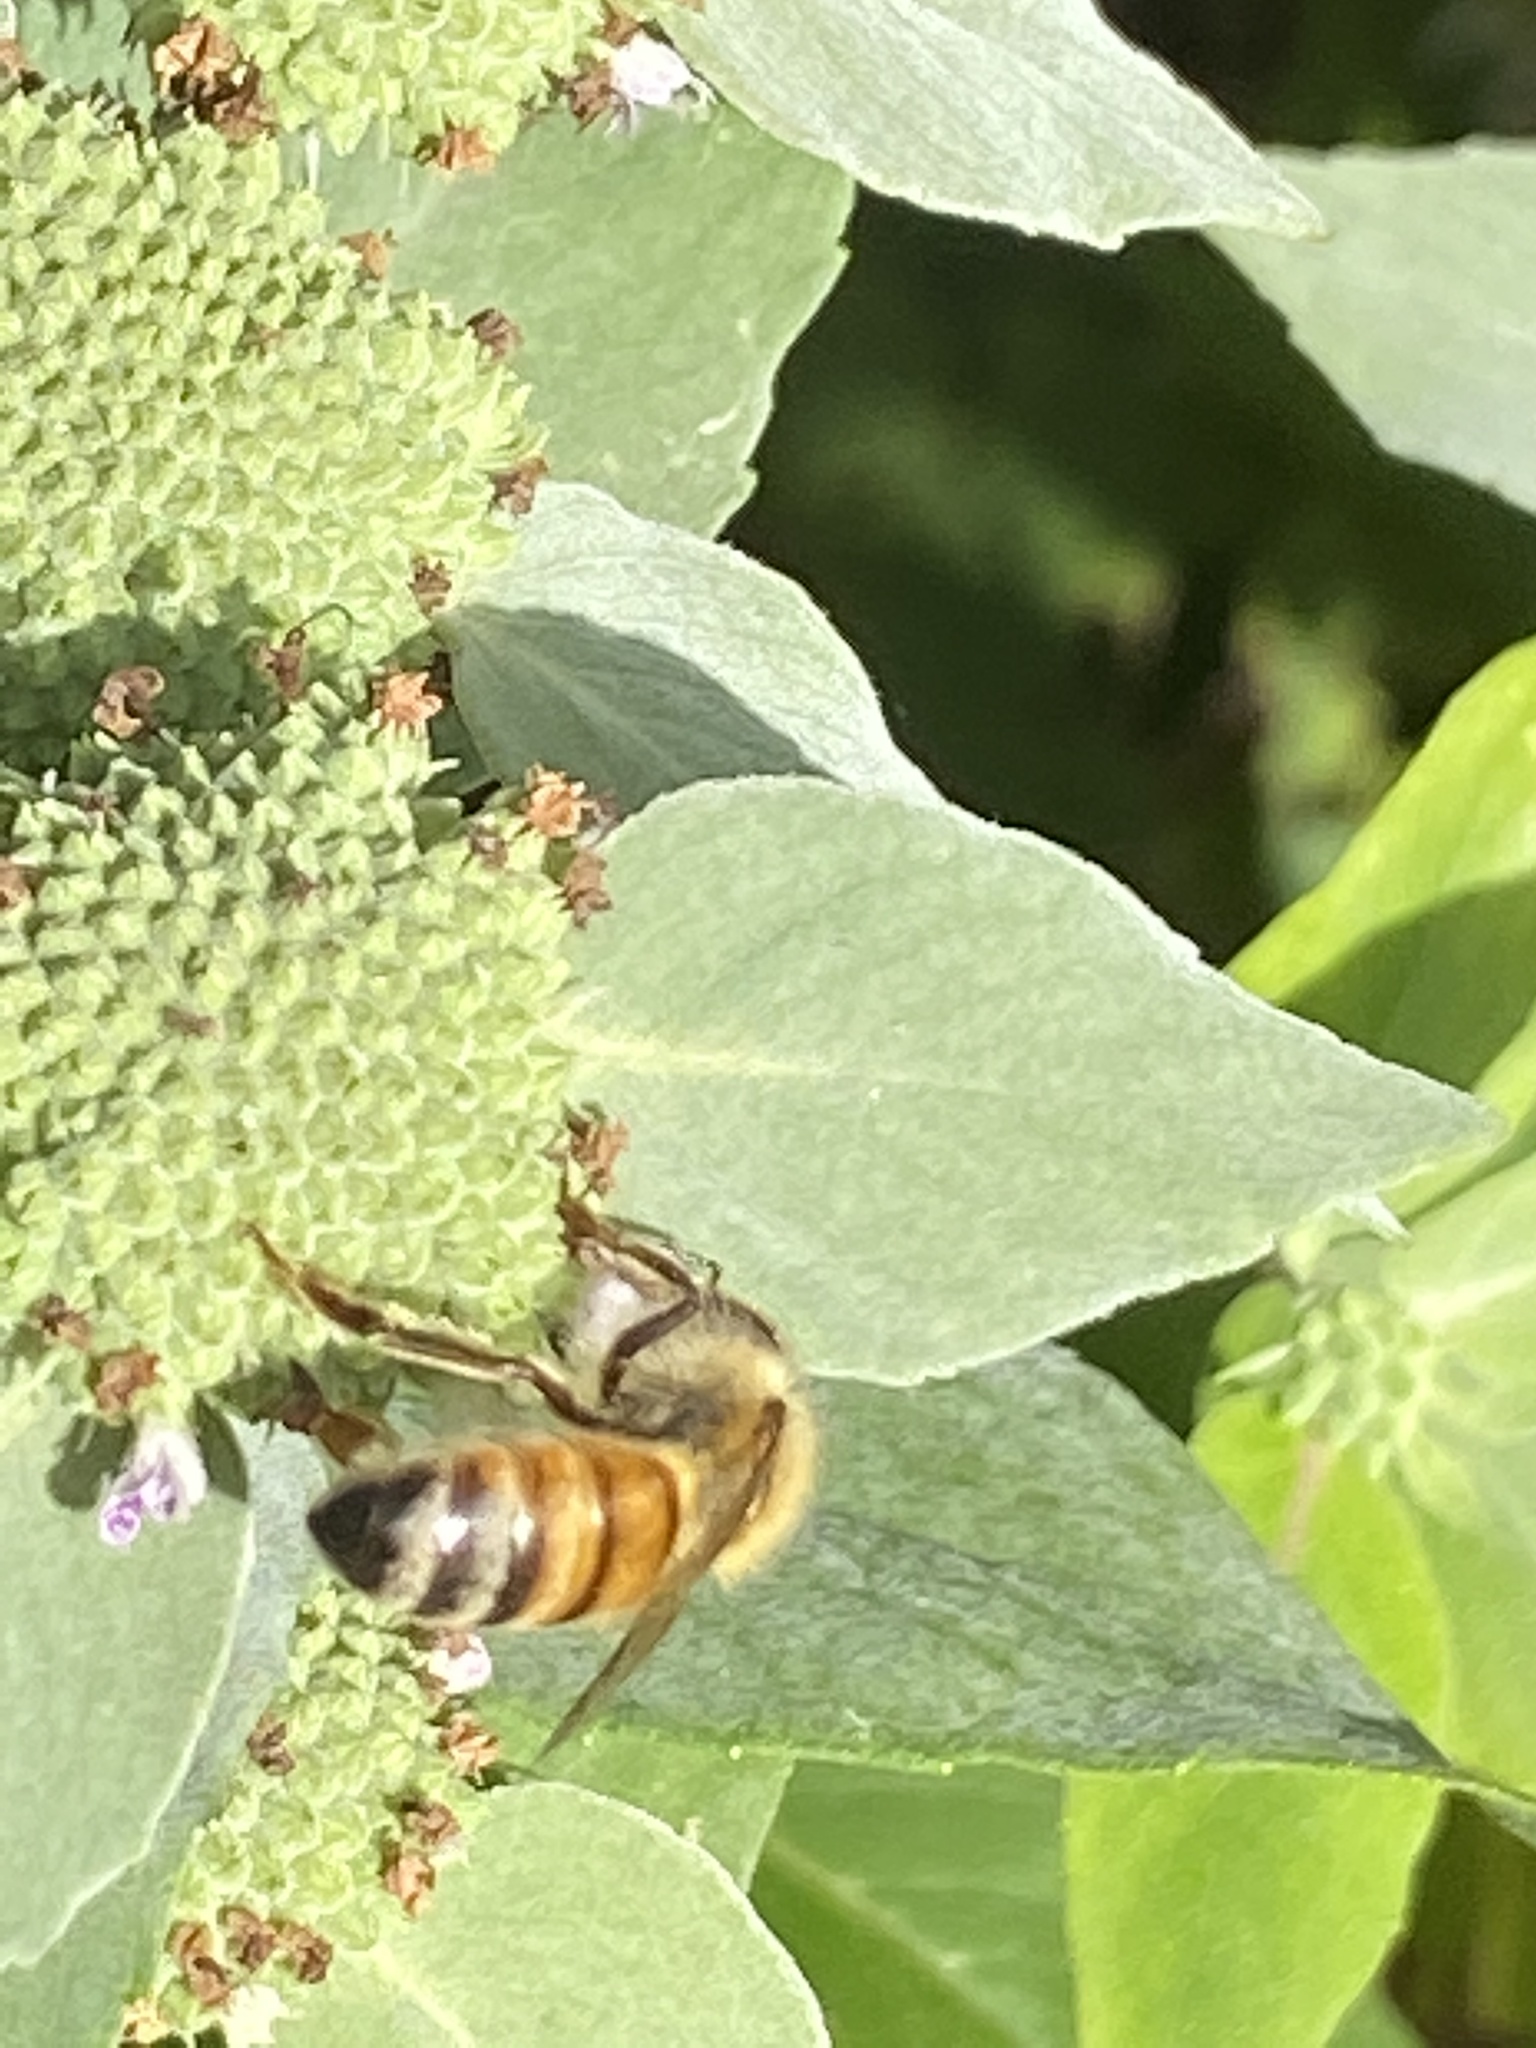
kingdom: Animalia
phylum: Arthropoda
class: Insecta
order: Hymenoptera
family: Apidae
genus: Apis
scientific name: Apis mellifera
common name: Honey bee
